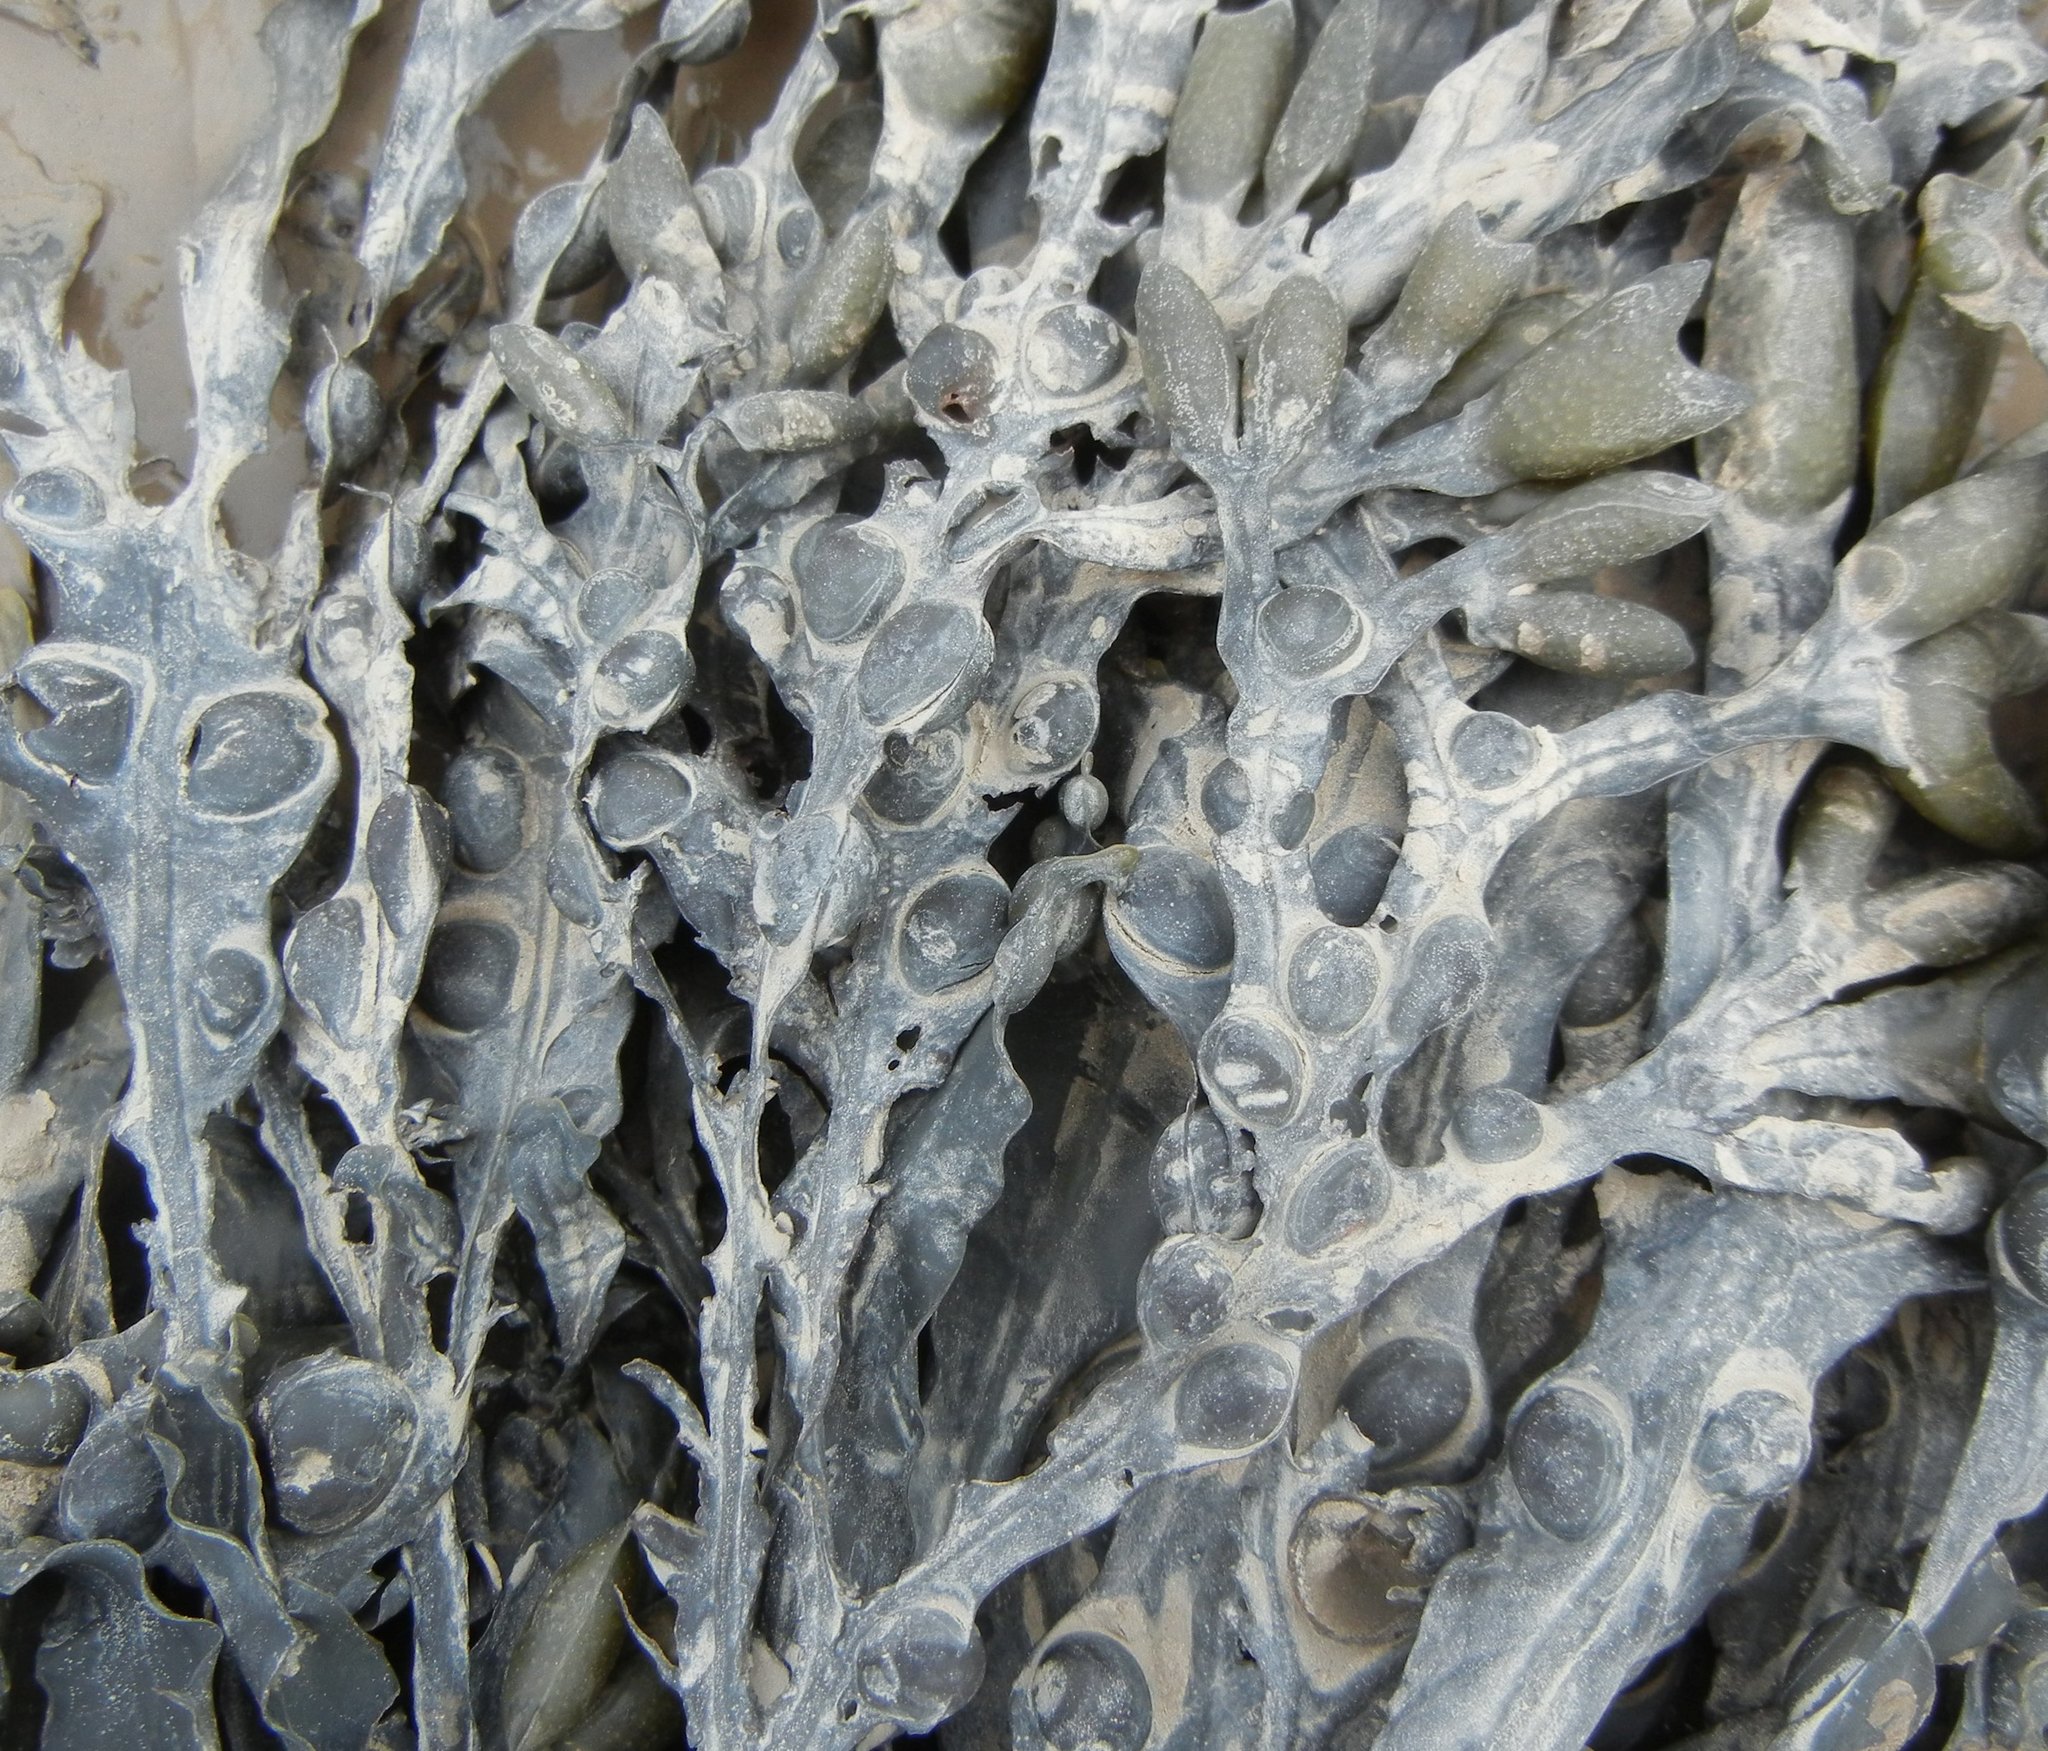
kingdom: Chromista
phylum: Ochrophyta
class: Phaeophyceae
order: Fucales
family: Fucaceae
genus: Fucus
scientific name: Fucus vesiculosus
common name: Bladder wrack
